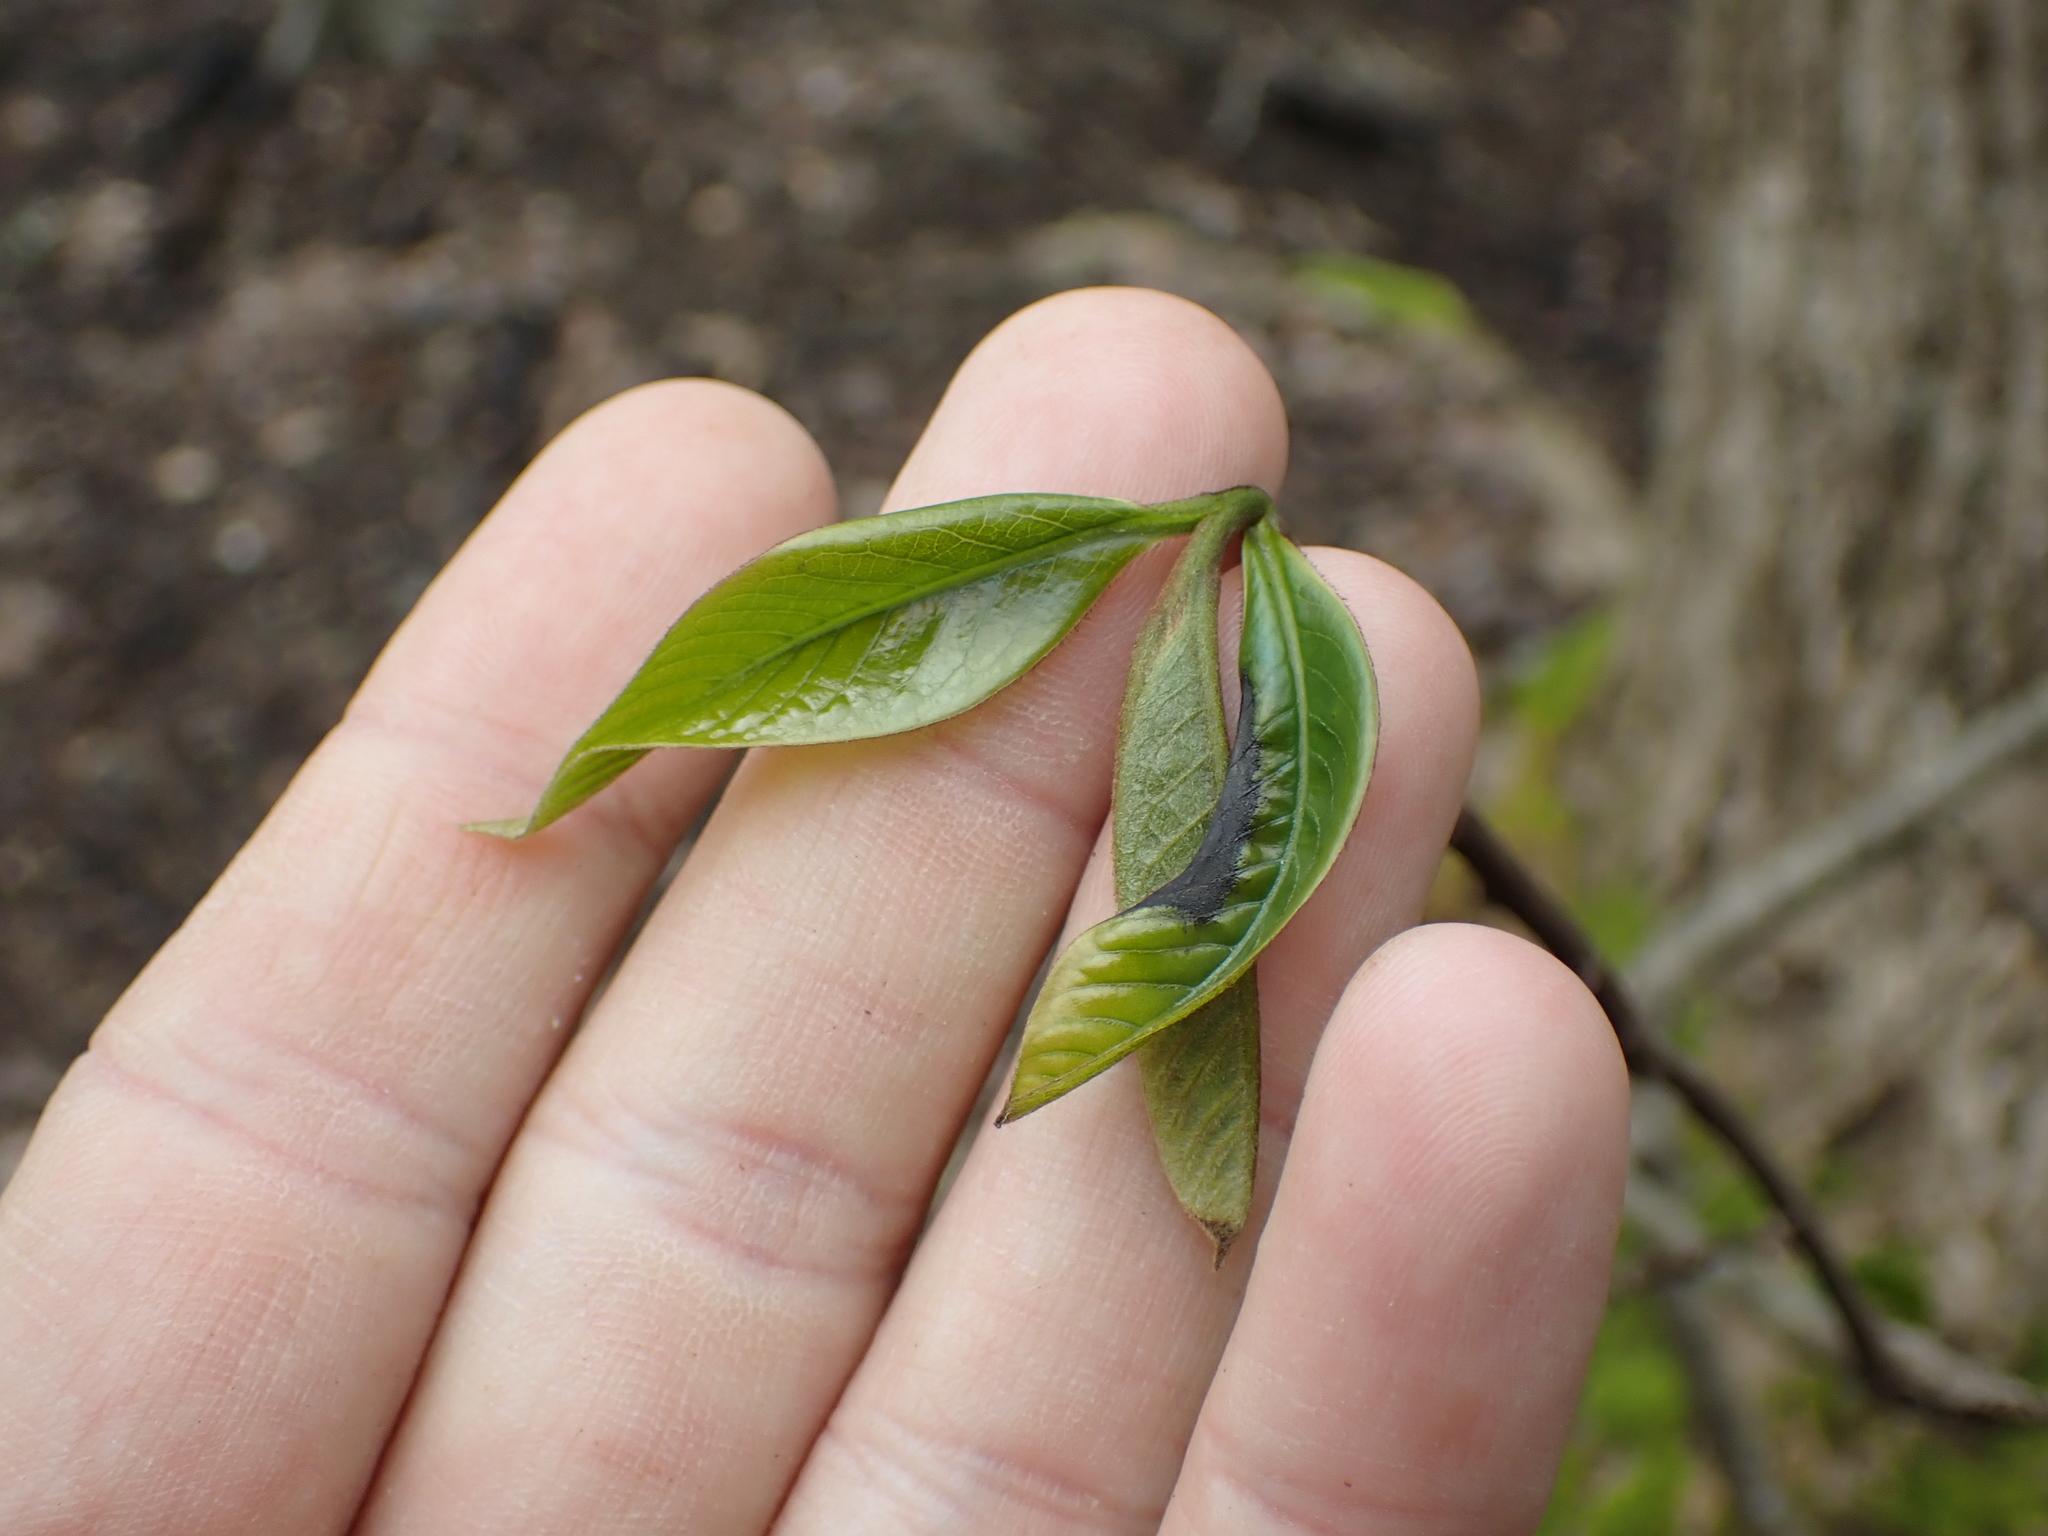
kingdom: Plantae
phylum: Tracheophyta
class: Magnoliopsida
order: Magnoliales
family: Annonaceae
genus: Asimina
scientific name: Asimina triloba
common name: Dog-banana
